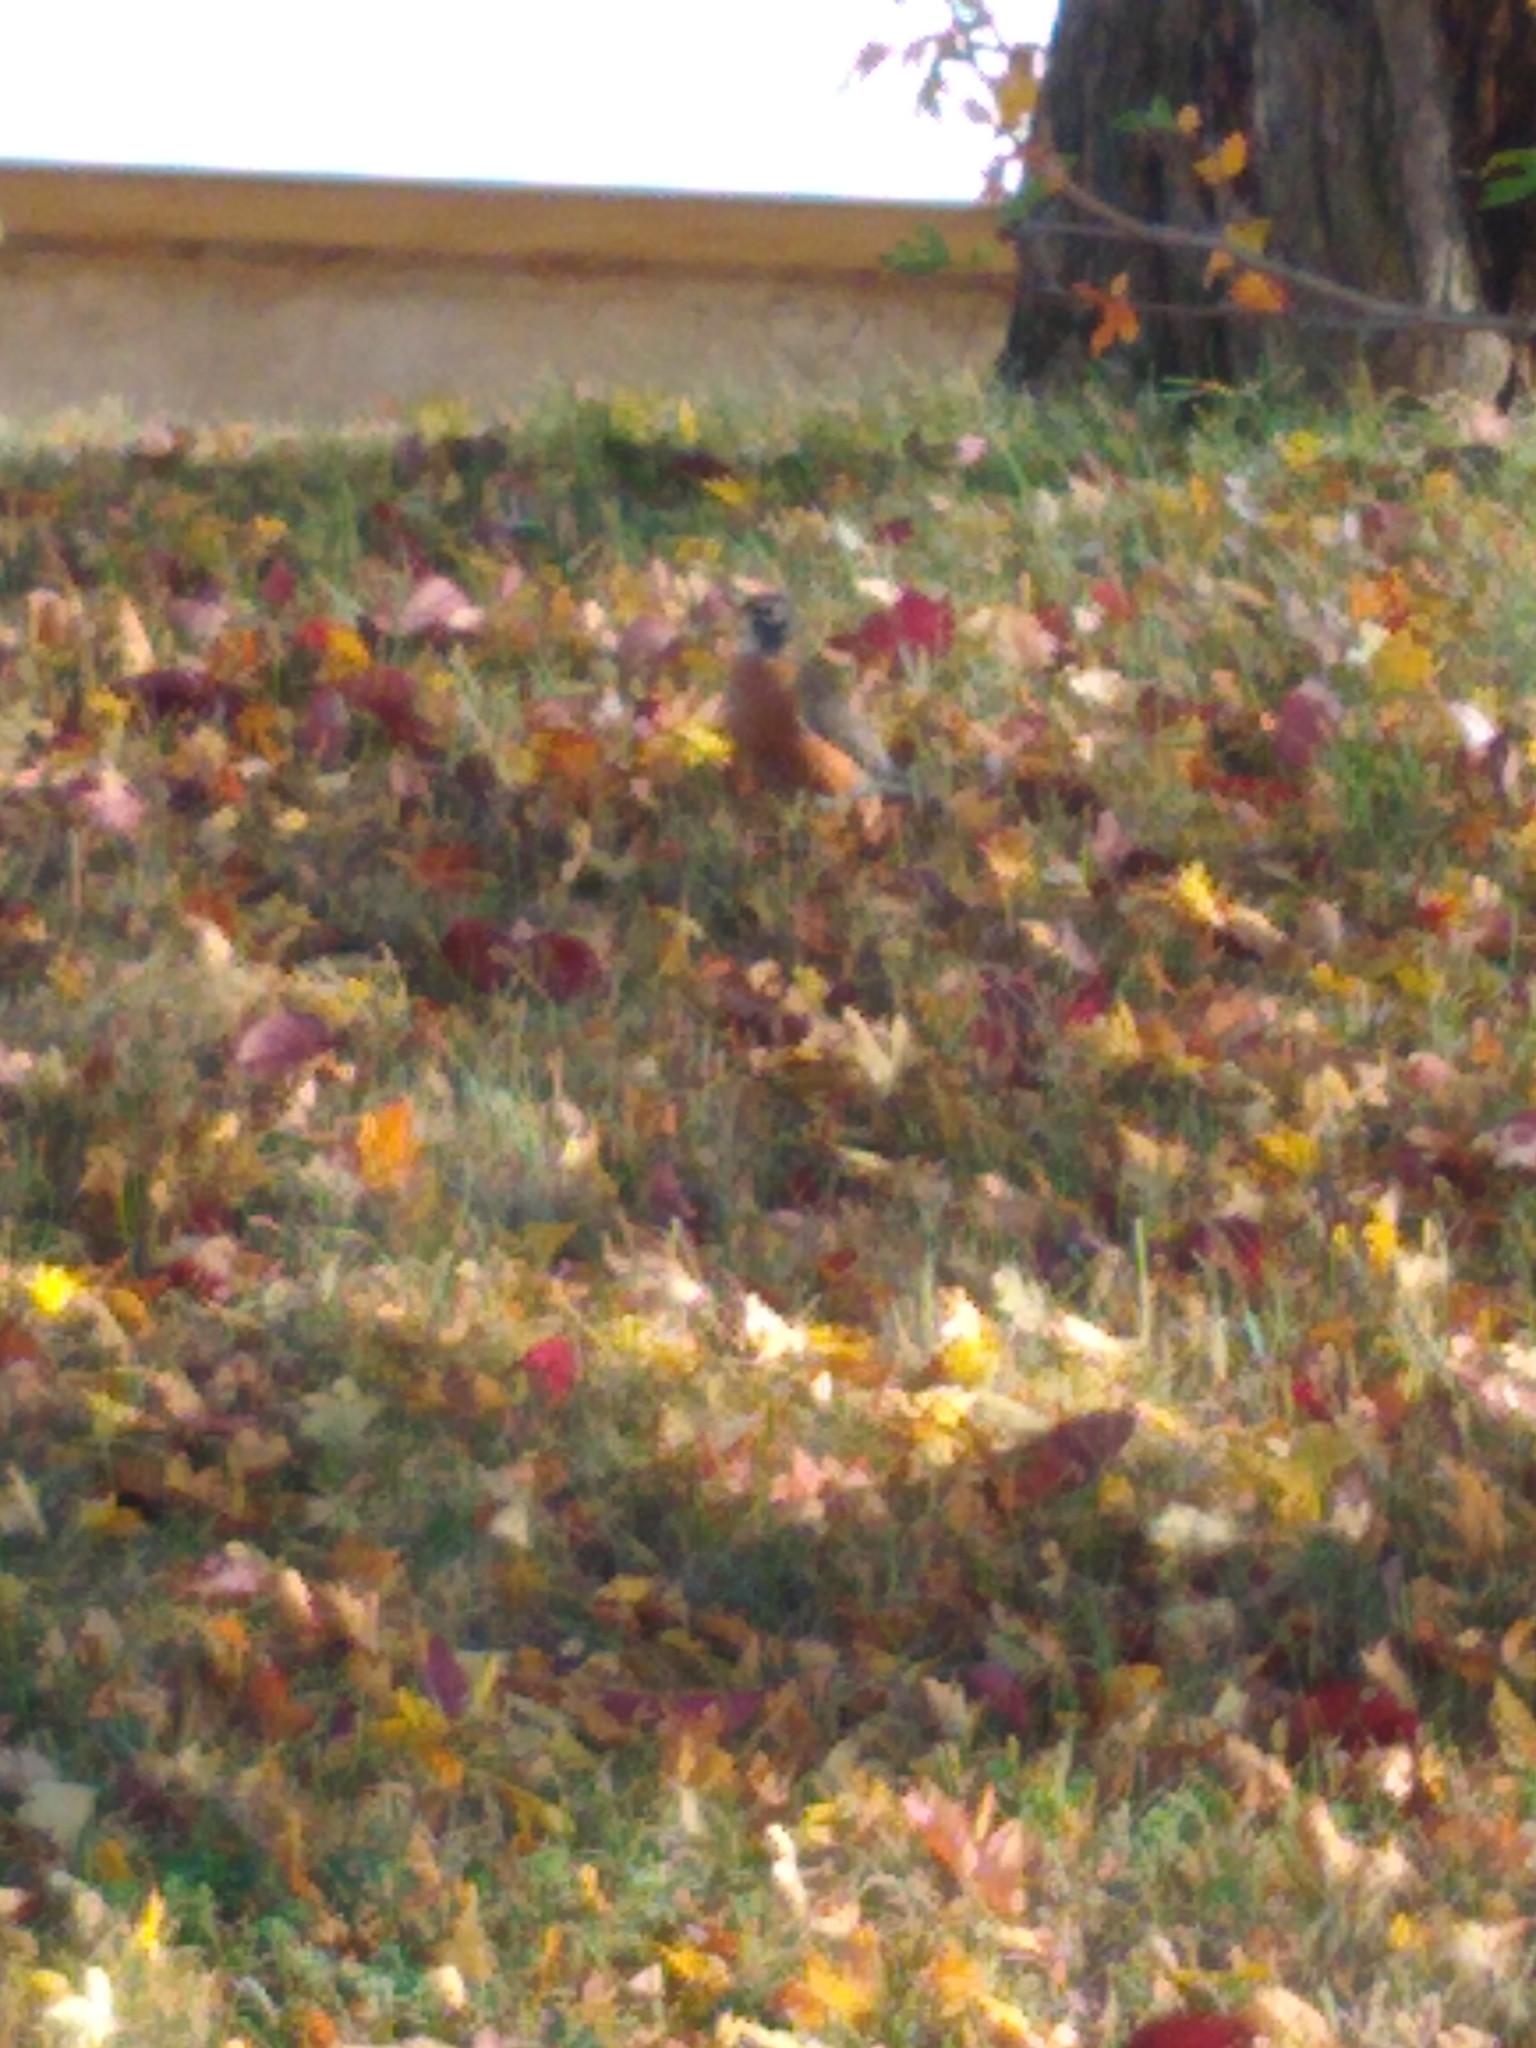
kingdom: Animalia
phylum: Chordata
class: Aves
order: Passeriformes
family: Turdidae
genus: Turdus
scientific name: Turdus migratorius
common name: American robin
